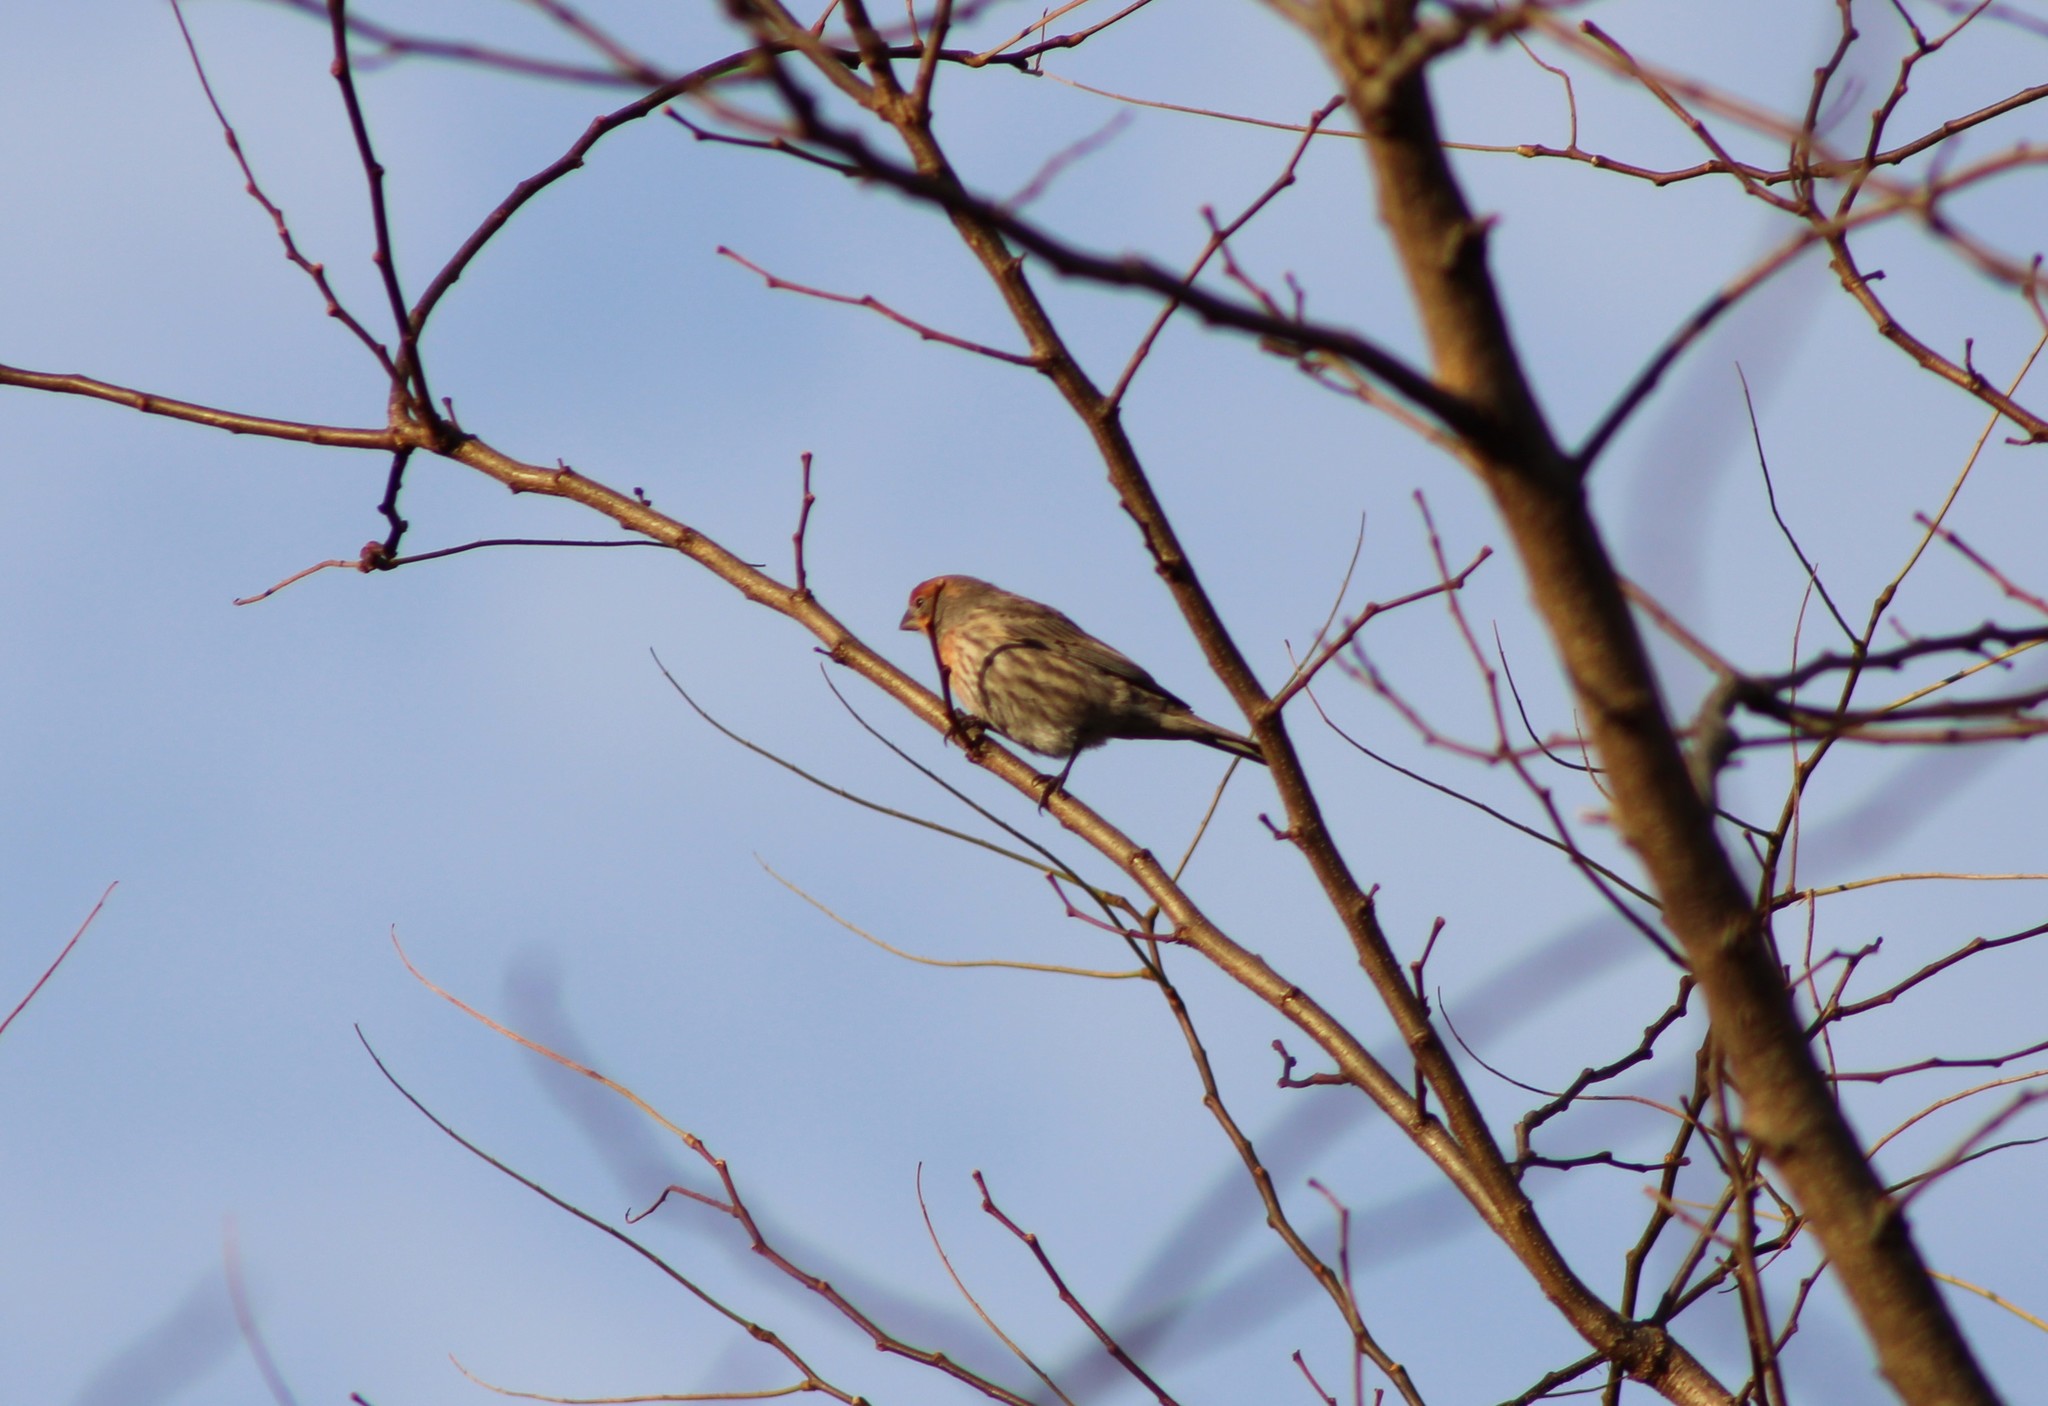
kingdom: Animalia
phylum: Chordata
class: Aves
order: Passeriformes
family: Fringillidae
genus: Haemorhous
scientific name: Haemorhous mexicanus
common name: House finch
